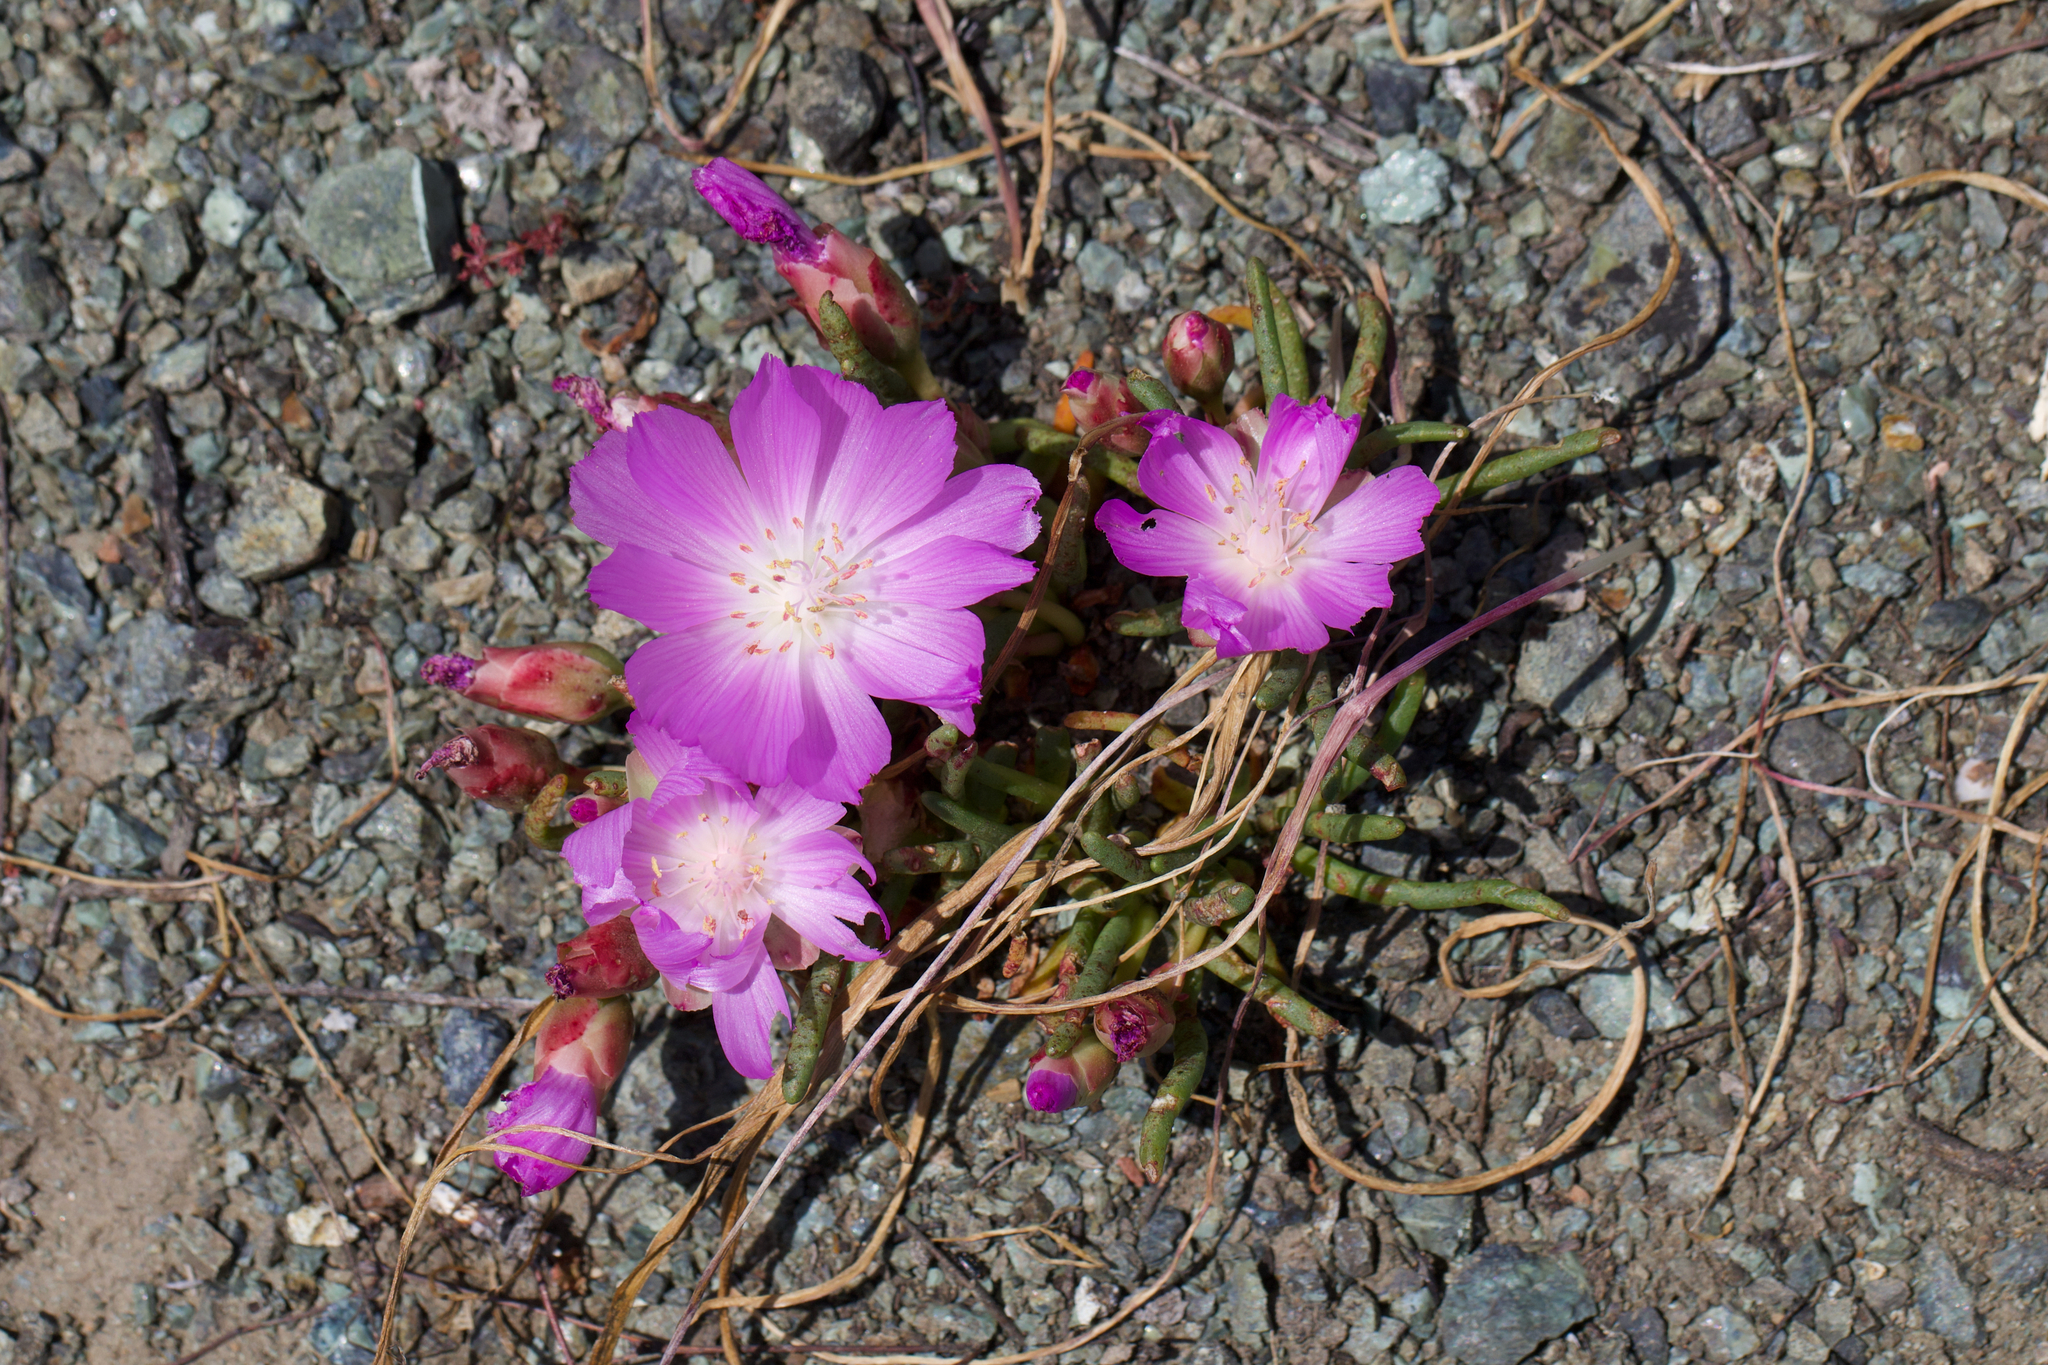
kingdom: Plantae
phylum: Tracheophyta
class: Magnoliopsida
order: Caryophyllales
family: Montiaceae
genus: Lewisia
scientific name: Lewisia rediviva
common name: Bitter-root
